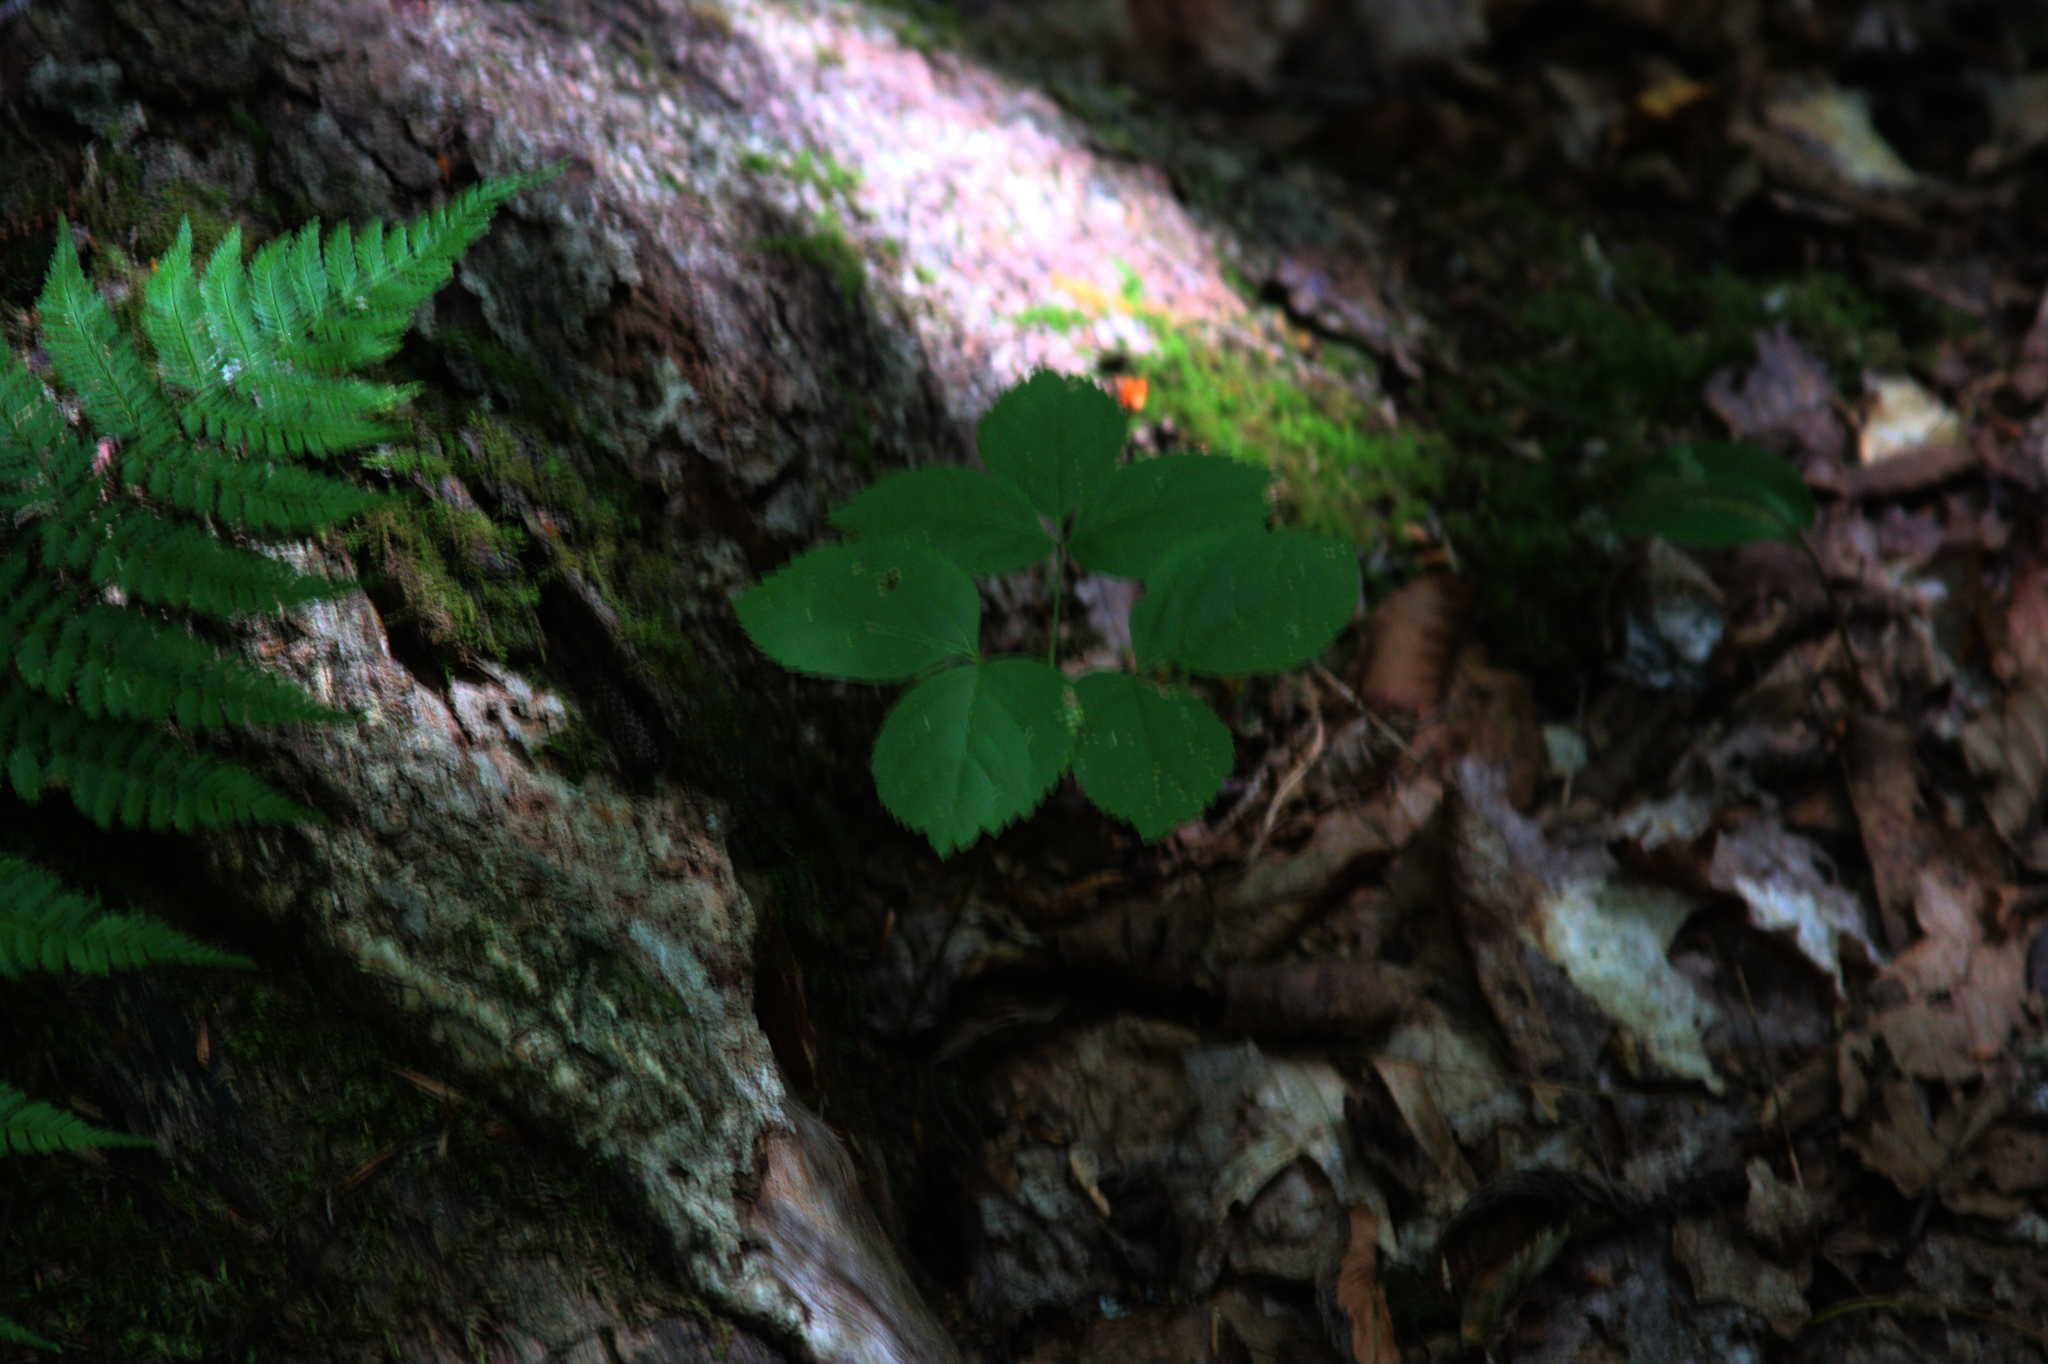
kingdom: Plantae
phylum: Tracheophyta
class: Magnoliopsida
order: Apiales
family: Araliaceae
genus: Aralia
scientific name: Aralia nudicaulis
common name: Wild sarsaparilla
